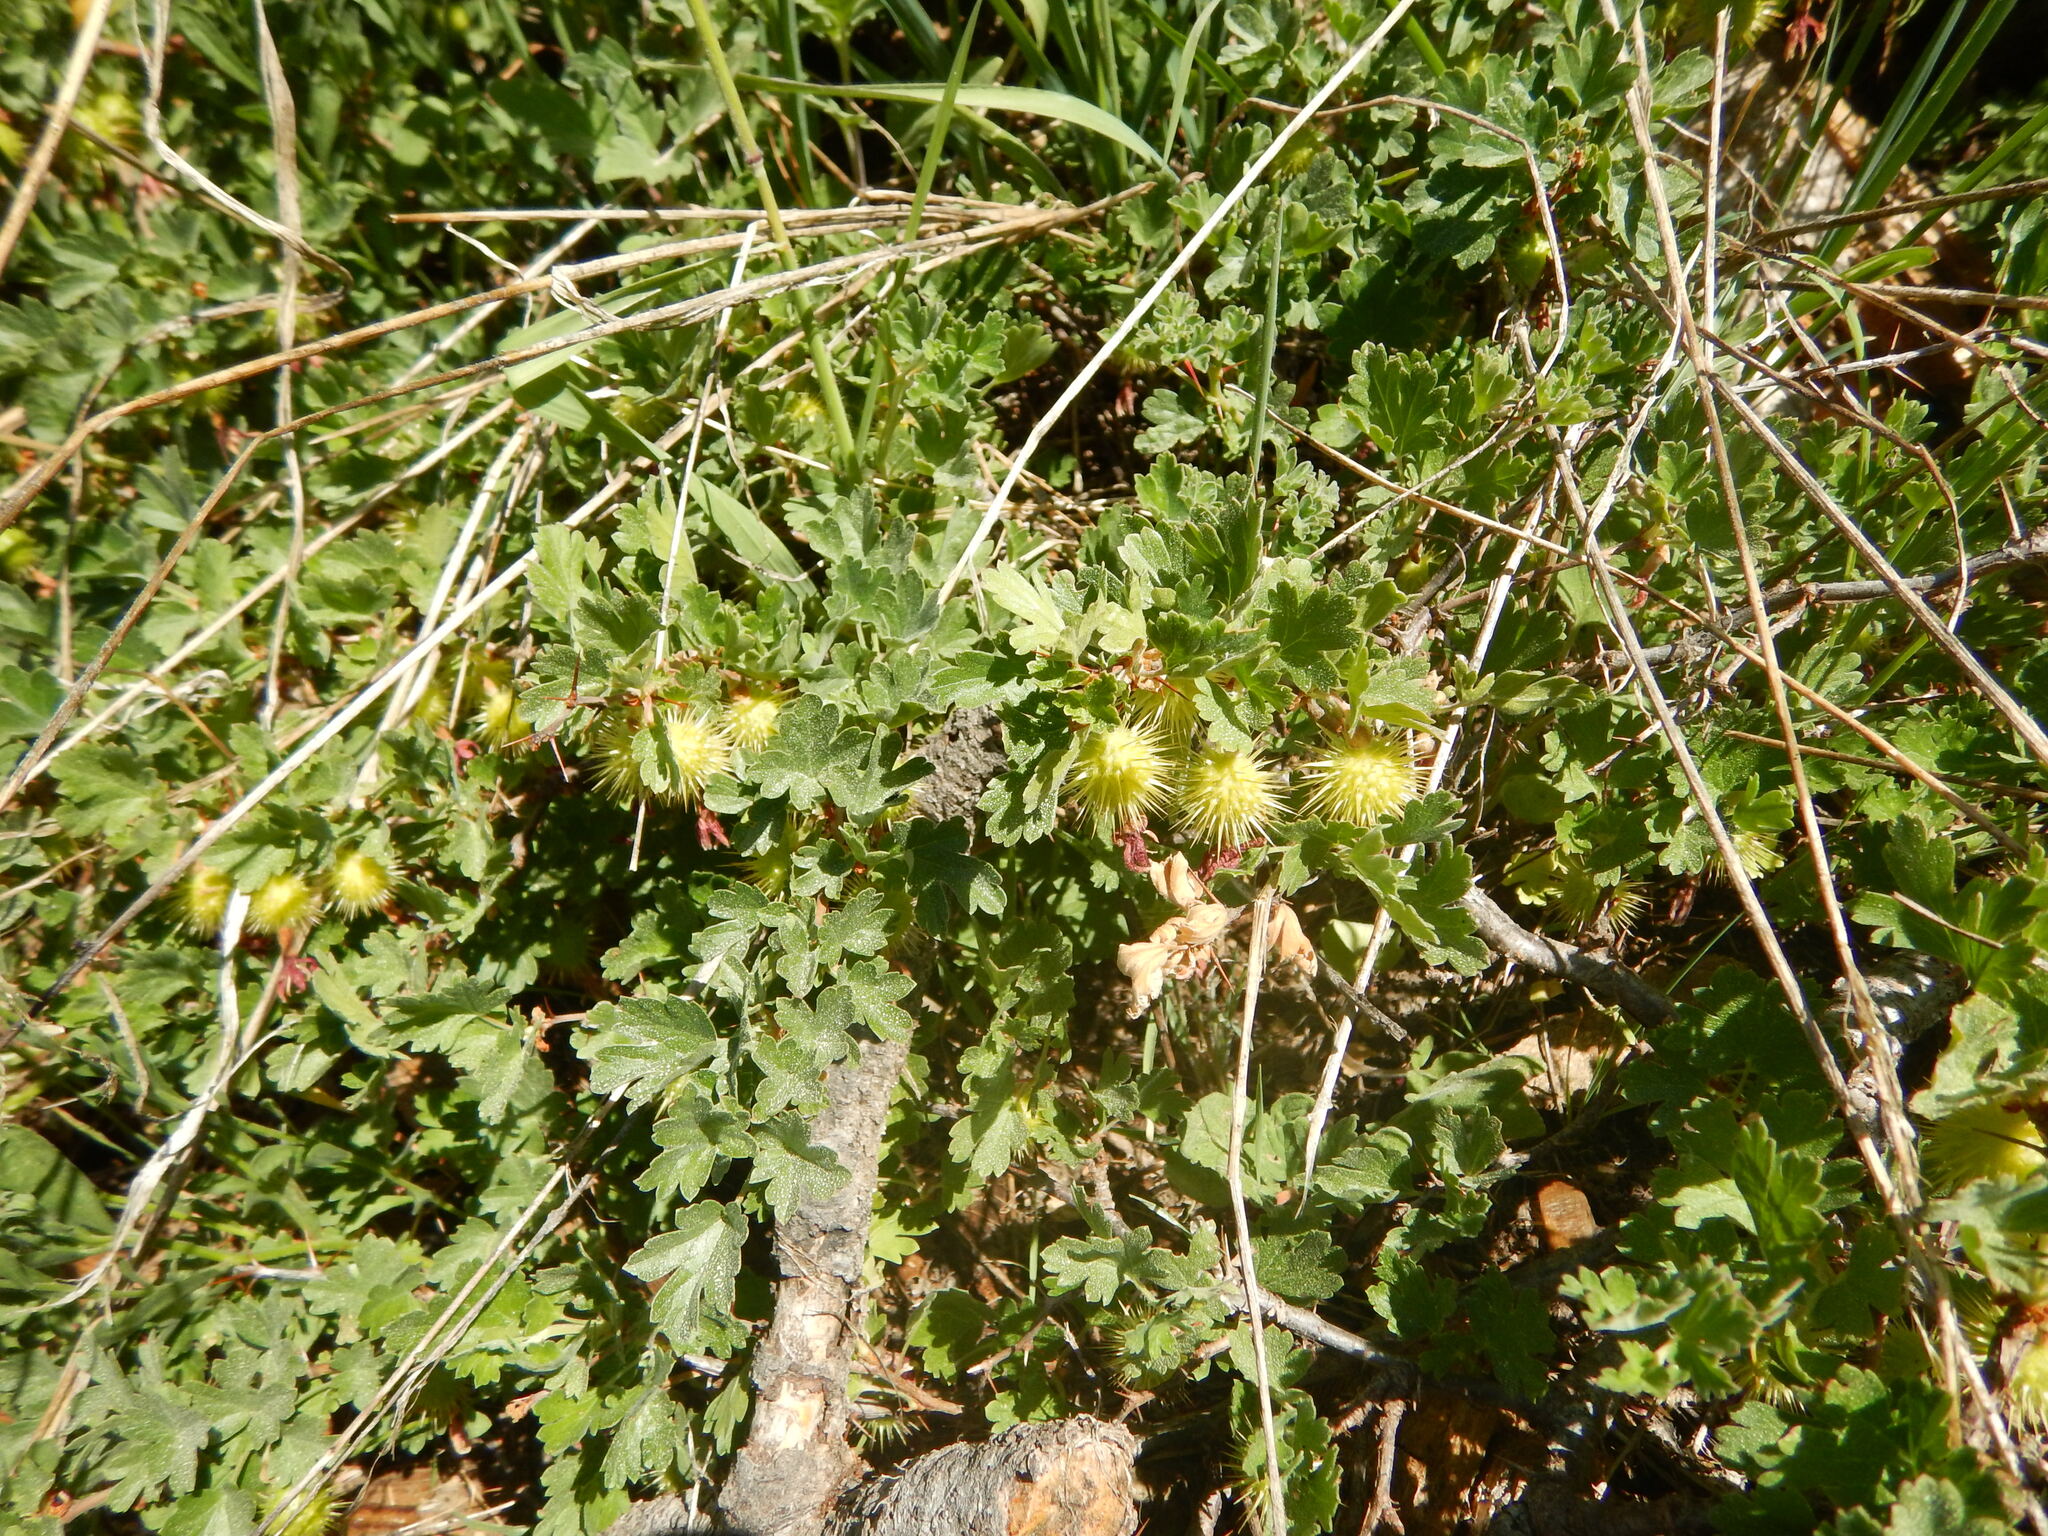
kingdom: Plantae
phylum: Tracheophyta
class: Magnoliopsida
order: Saxifragales
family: Grossulariaceae
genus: Ribes
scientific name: Ribes roezlii
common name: Sierra gooseberry
